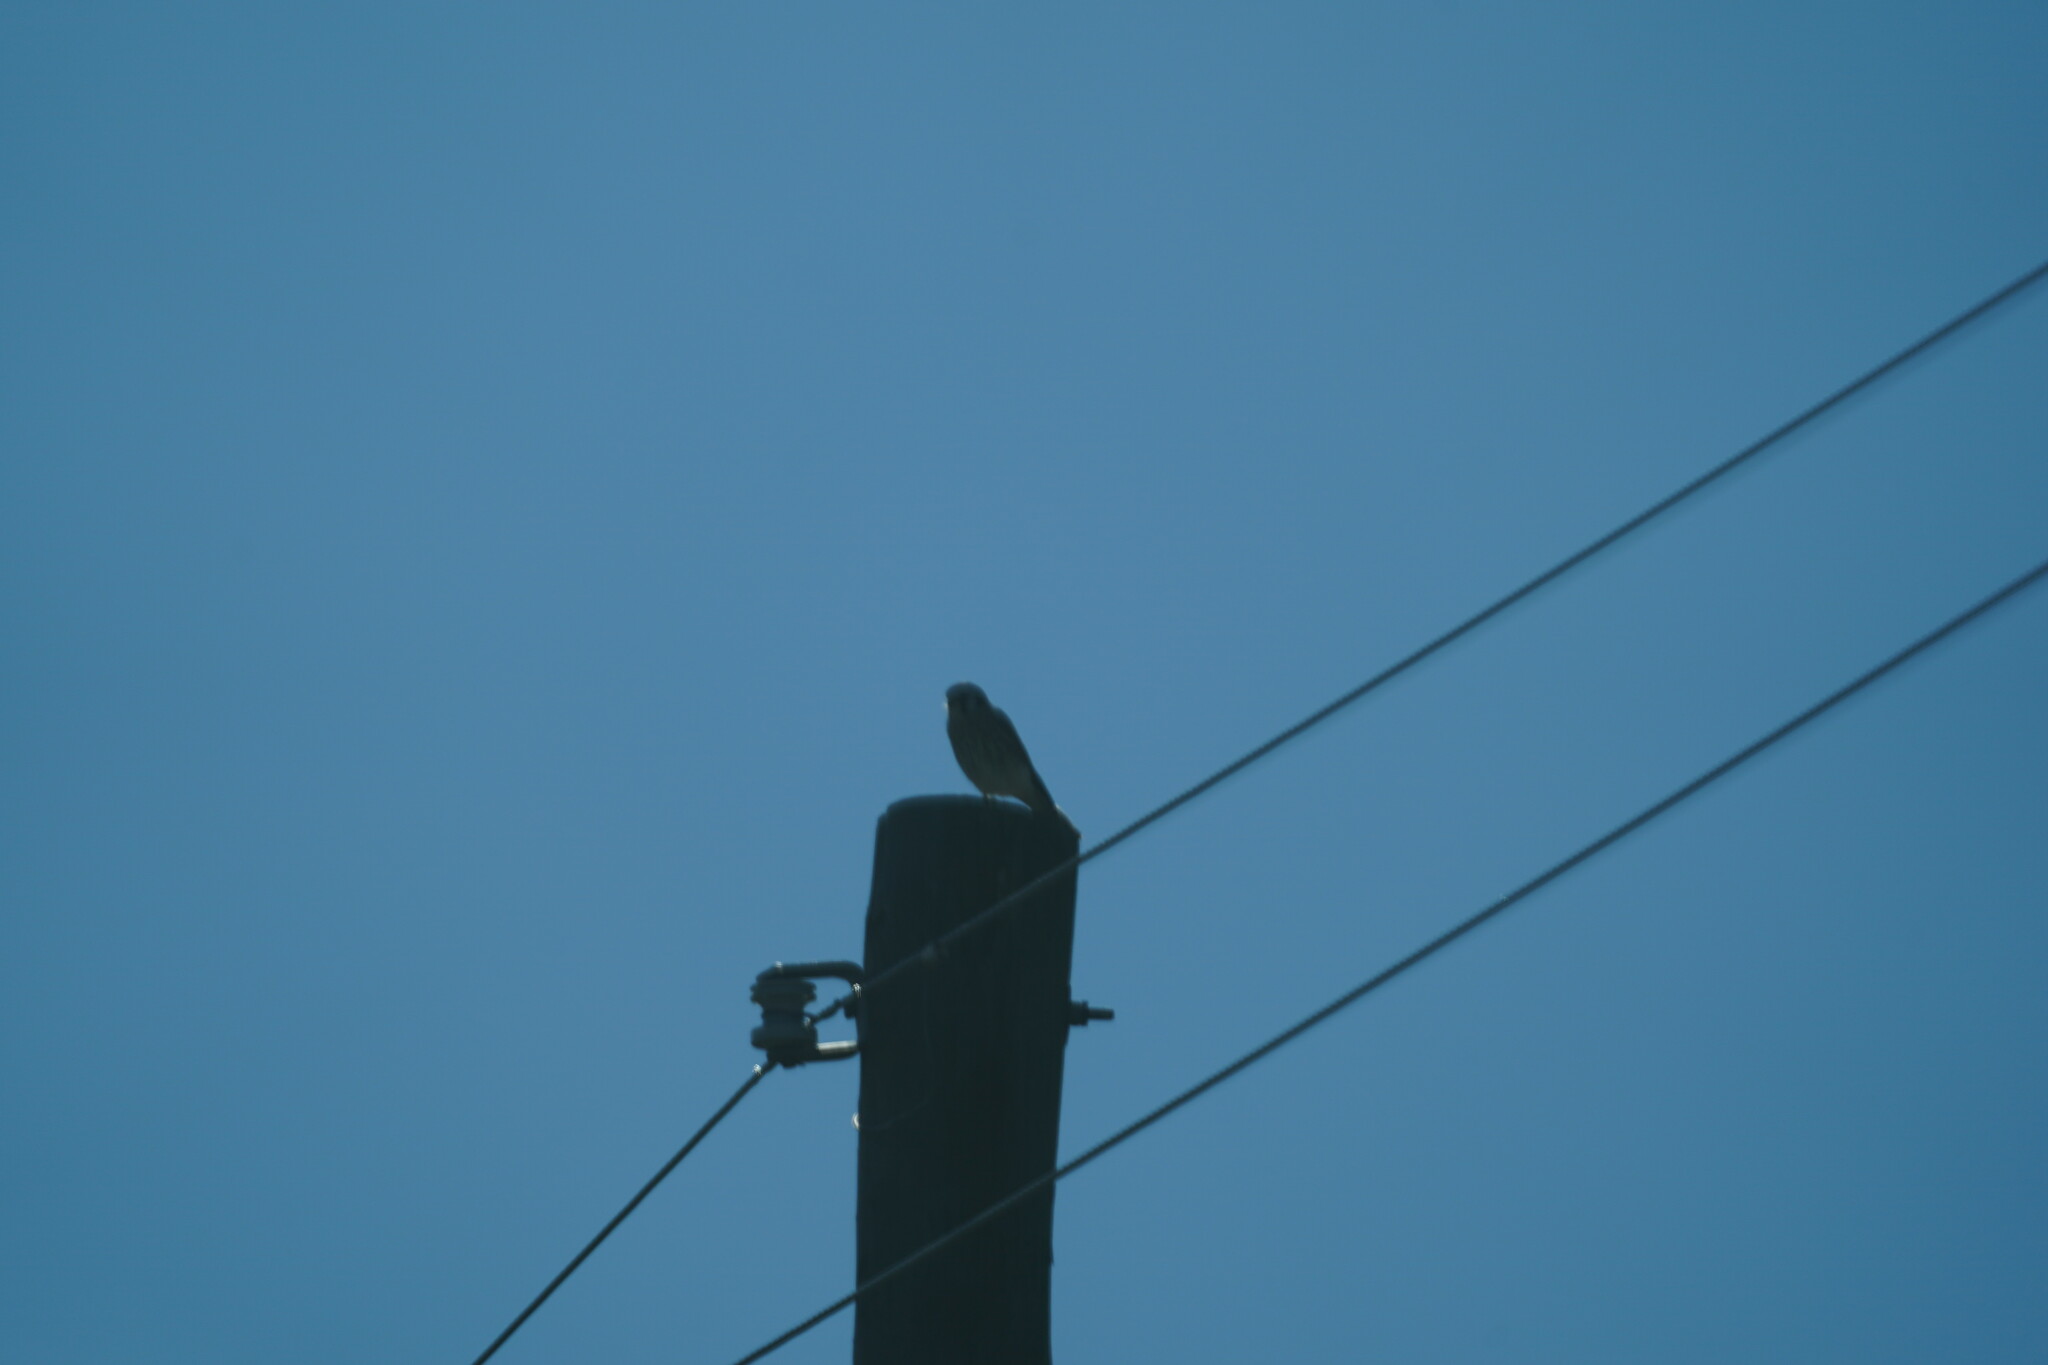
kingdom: Animalia
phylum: Chordata
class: Aves
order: Falconiformes
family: Falconidae
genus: Falco
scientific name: Falco sparverius
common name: American kestrel
